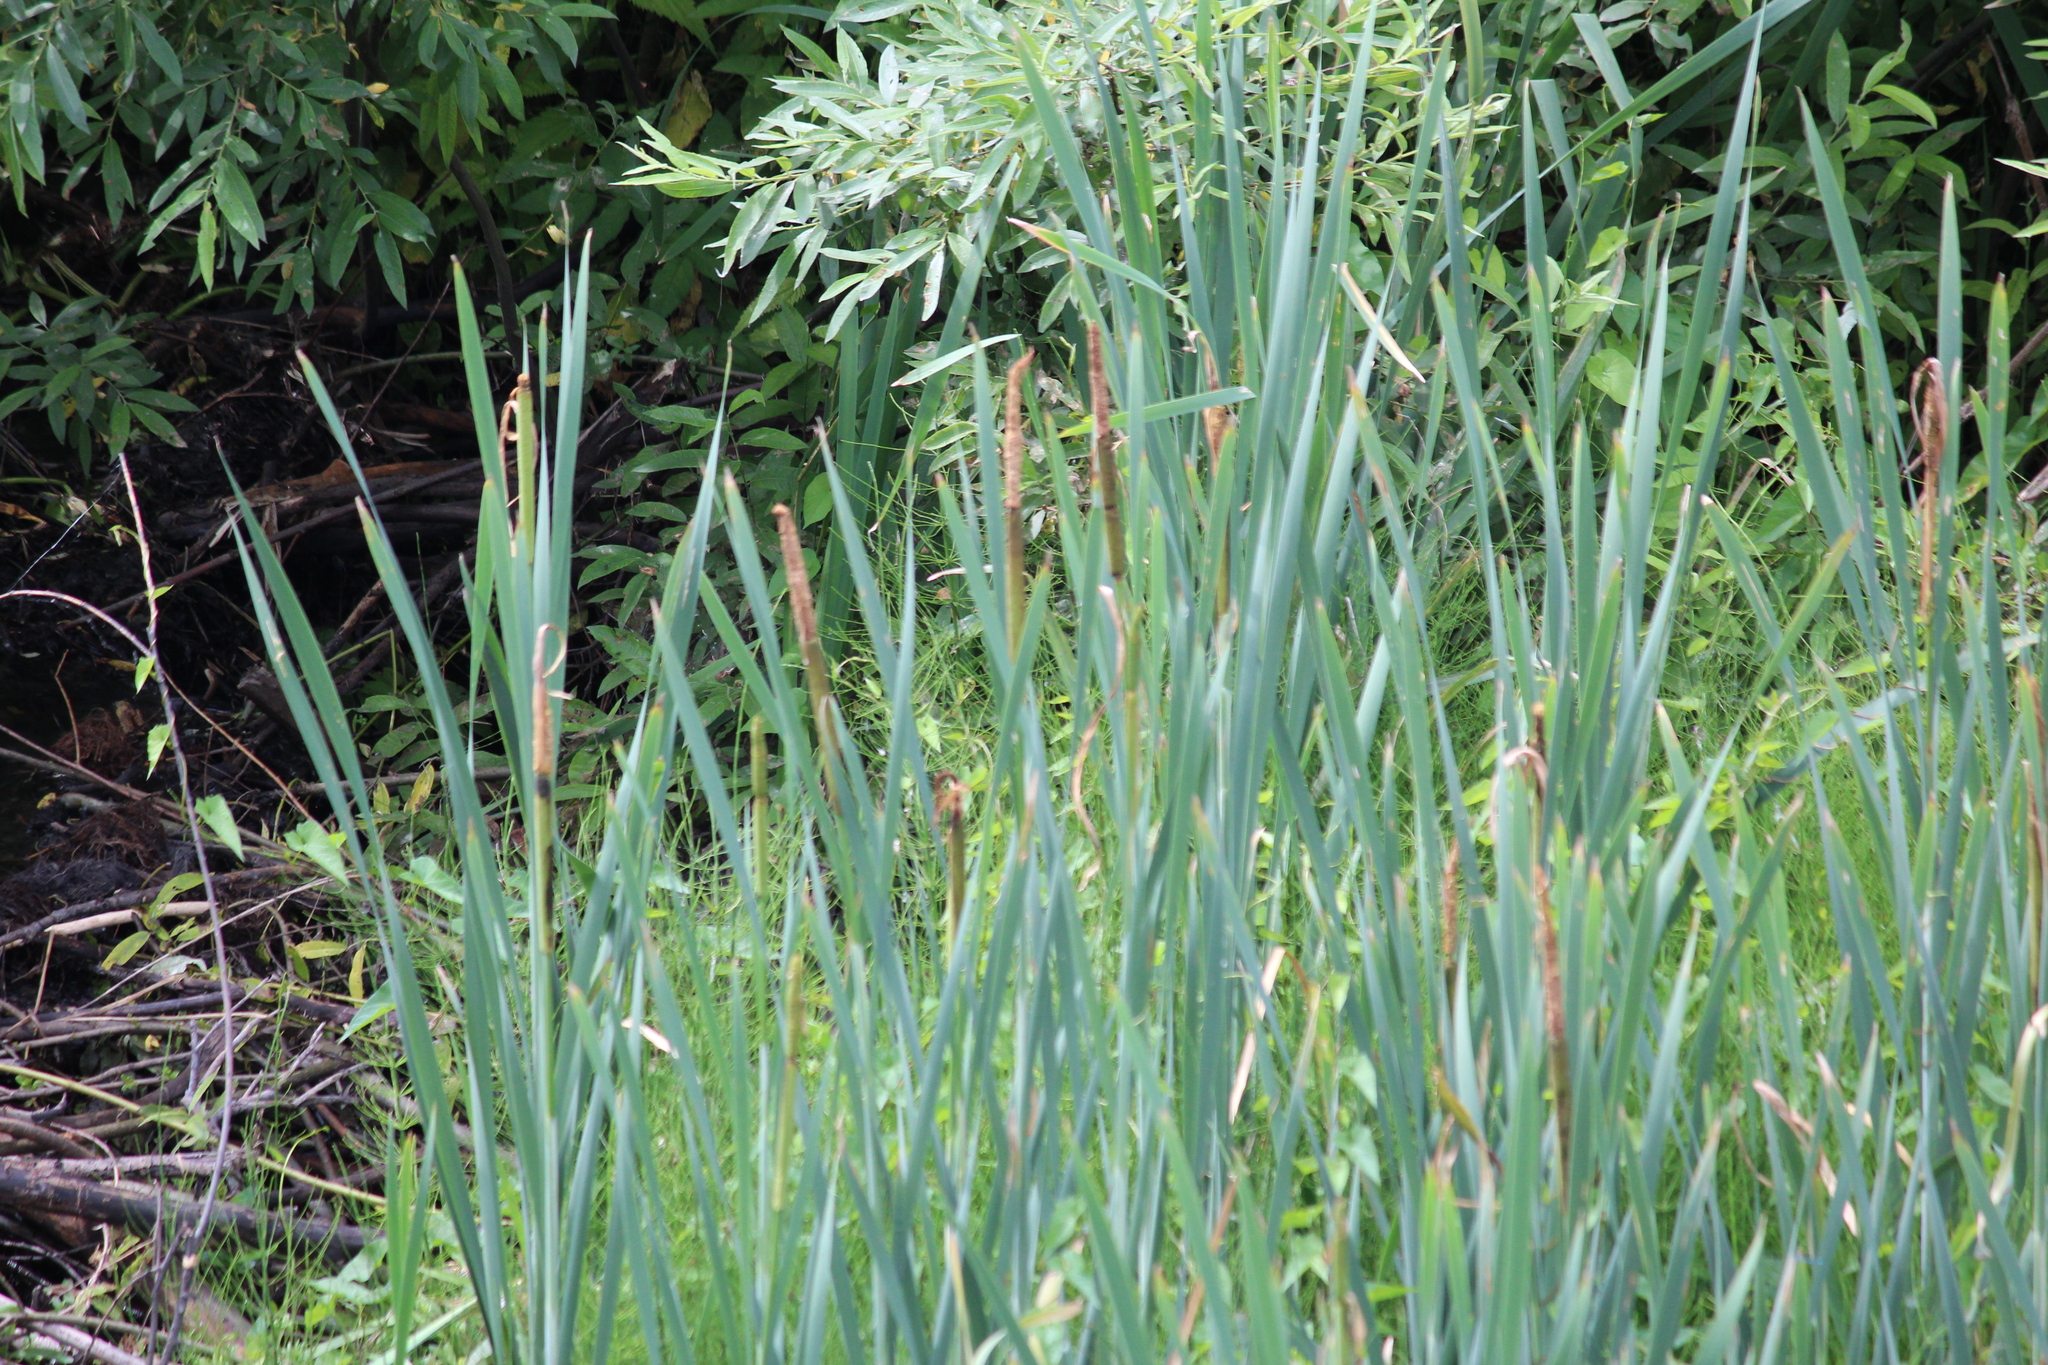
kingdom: Plantae
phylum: Tracheophyta
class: Liliopsida
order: Poales
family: Typhaceae
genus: Typha
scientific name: Typha latifolia
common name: Broadleaf cattail
